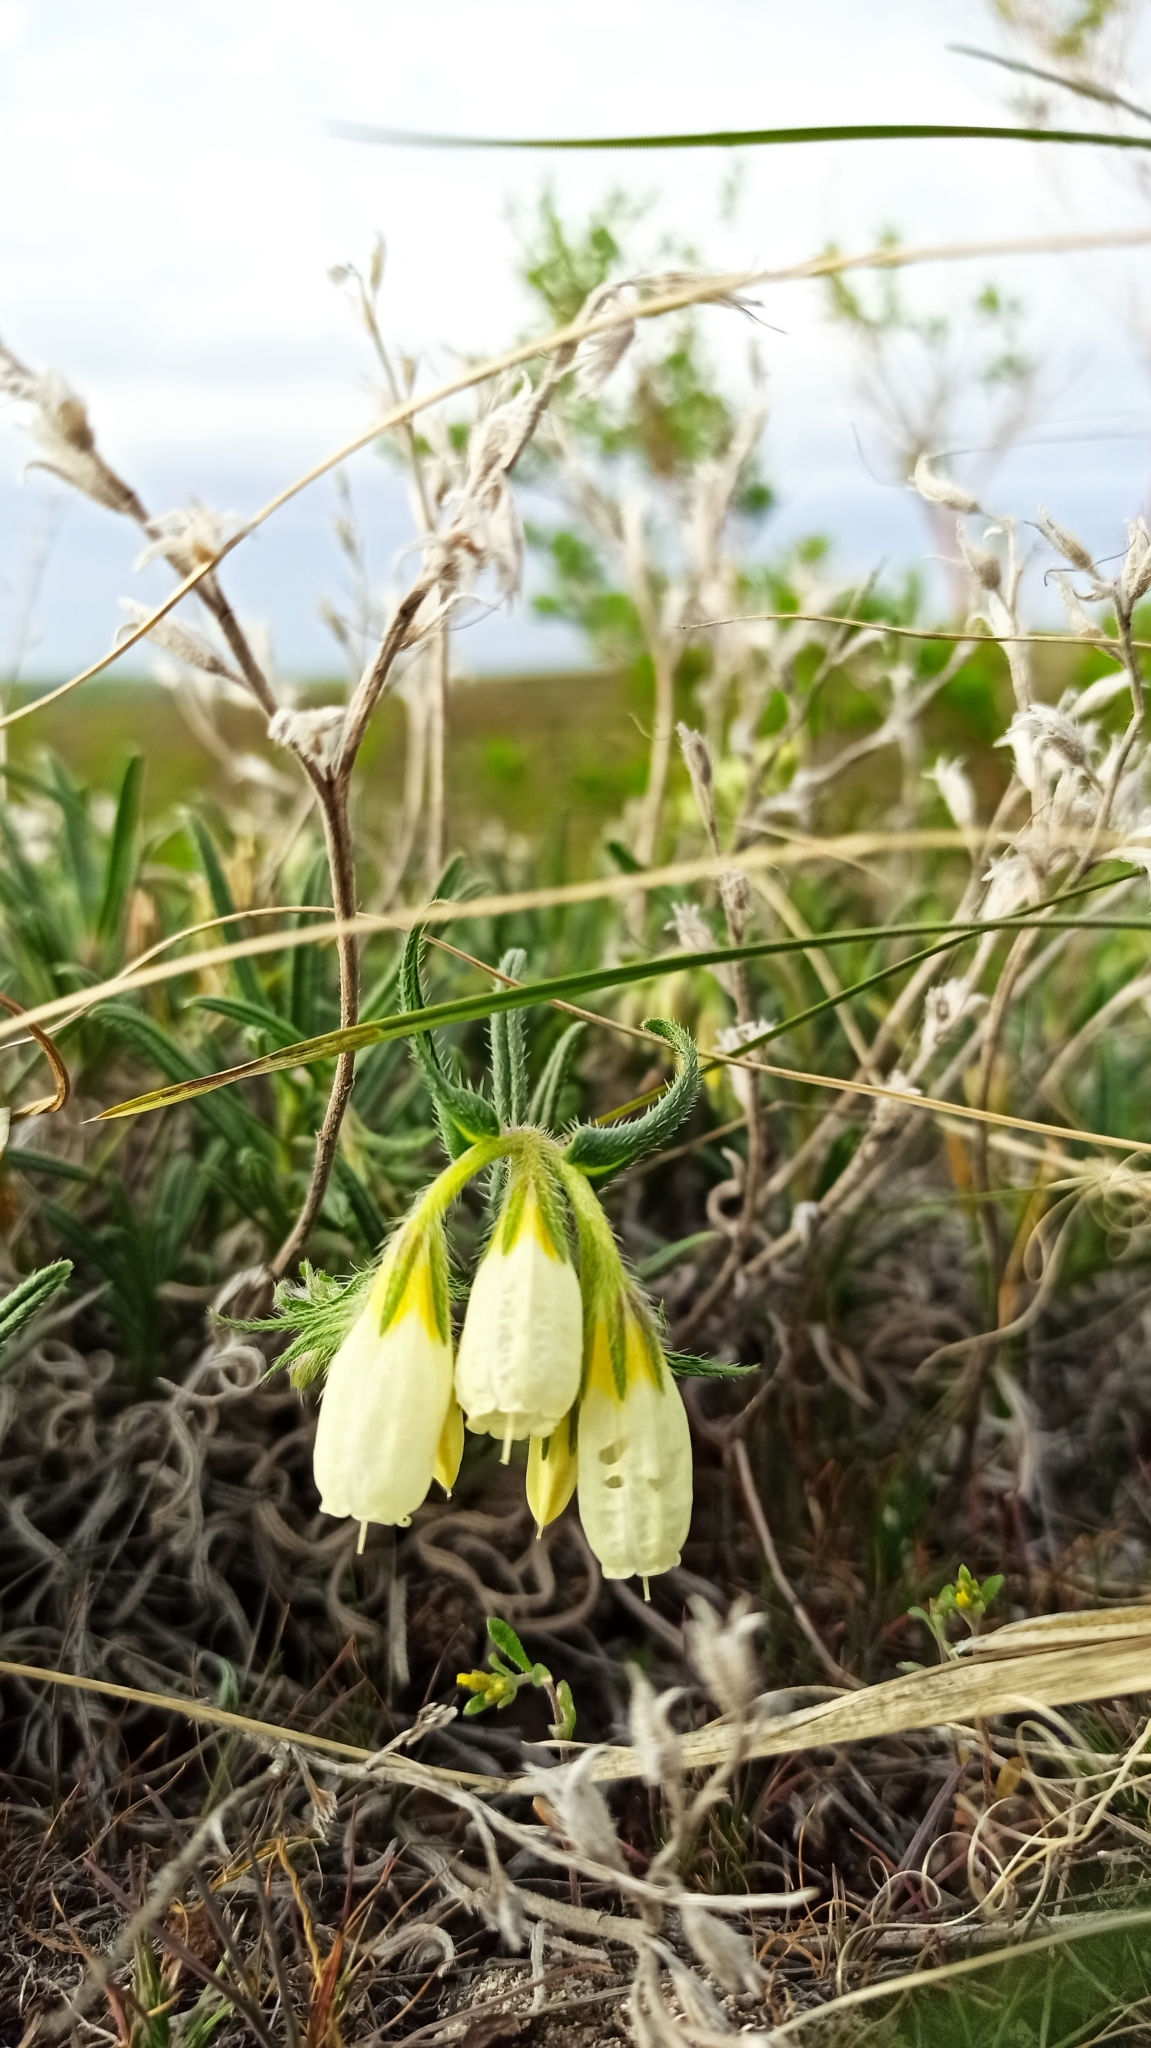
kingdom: Plantae
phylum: Tracheophyta
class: Magnoliopsida
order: Boraginales
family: Boraginaceae
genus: Onosma
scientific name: Onosma simplicissima
